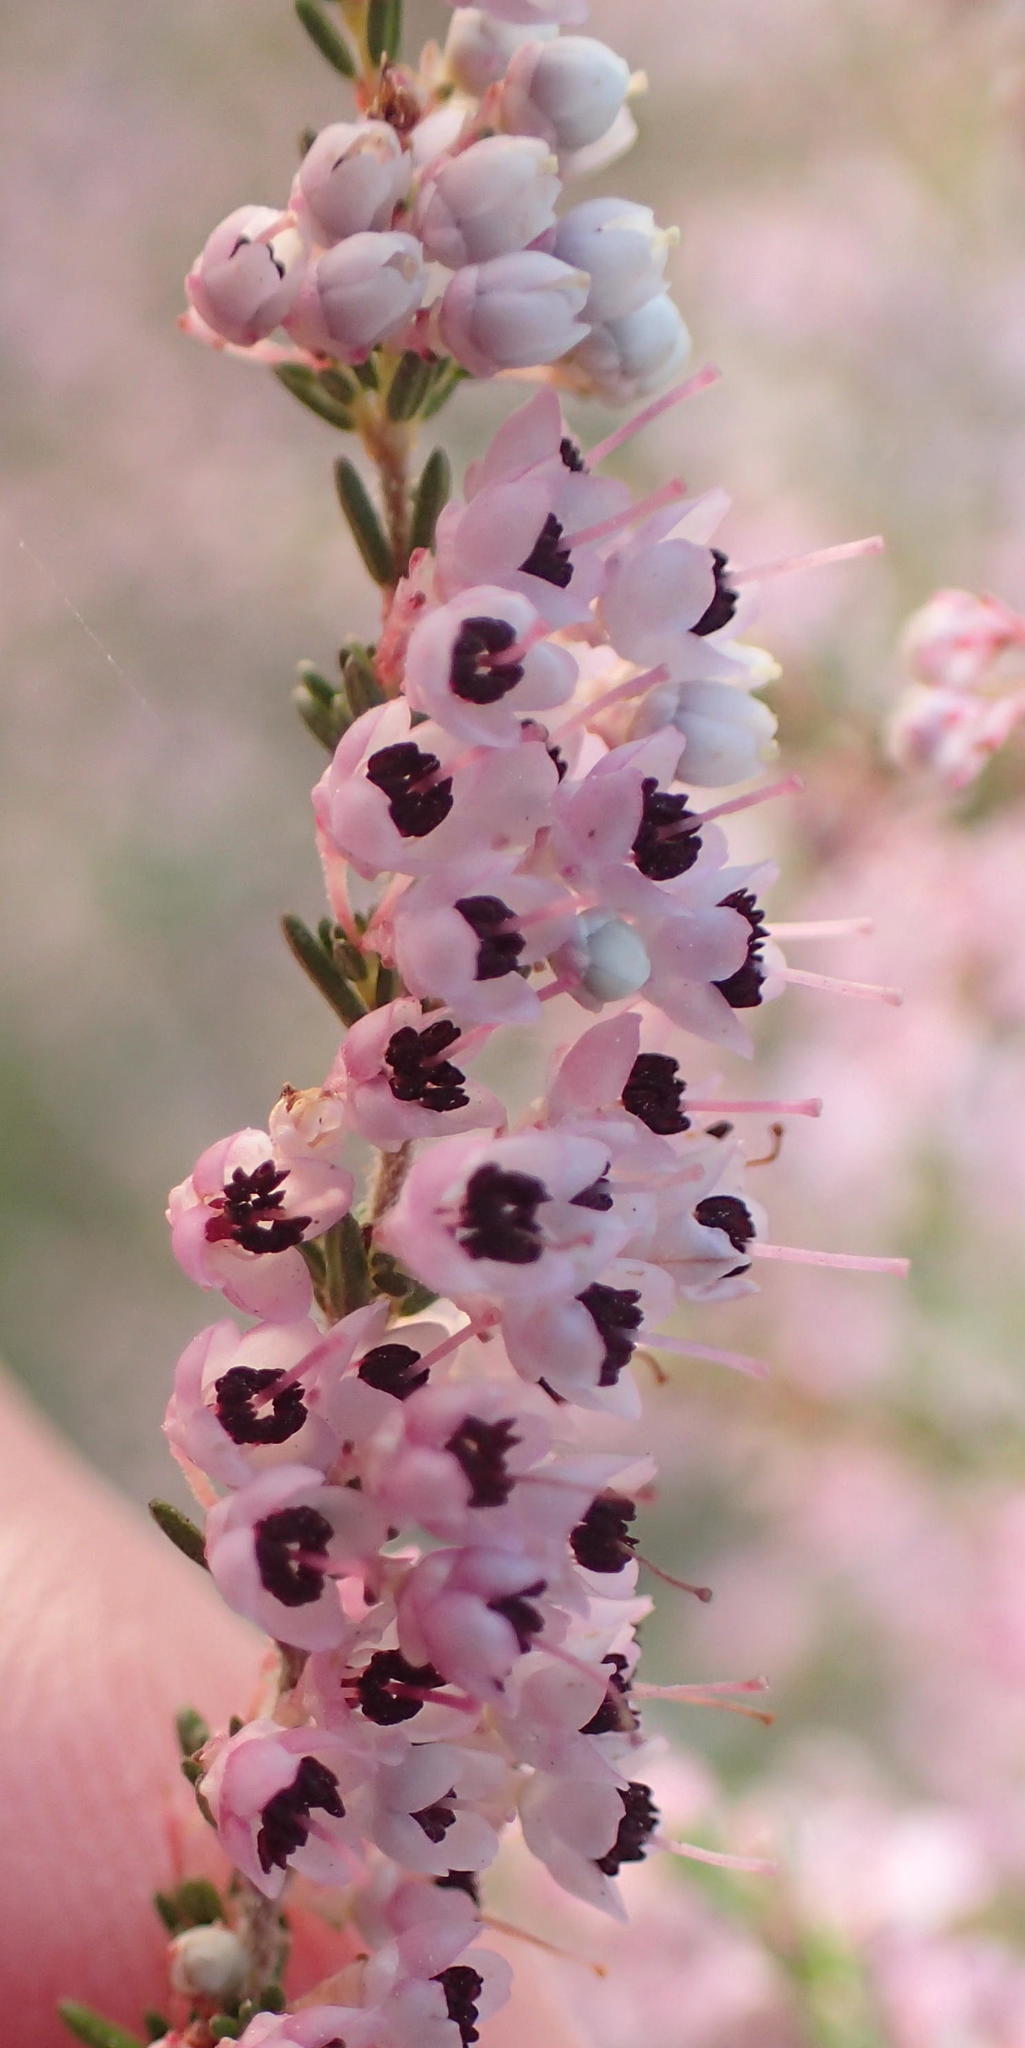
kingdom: Plantae
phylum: Tracheophyta
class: Magnoliopsida
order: Ericales
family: Ericaceae
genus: Erica
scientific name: Erica sparsa
